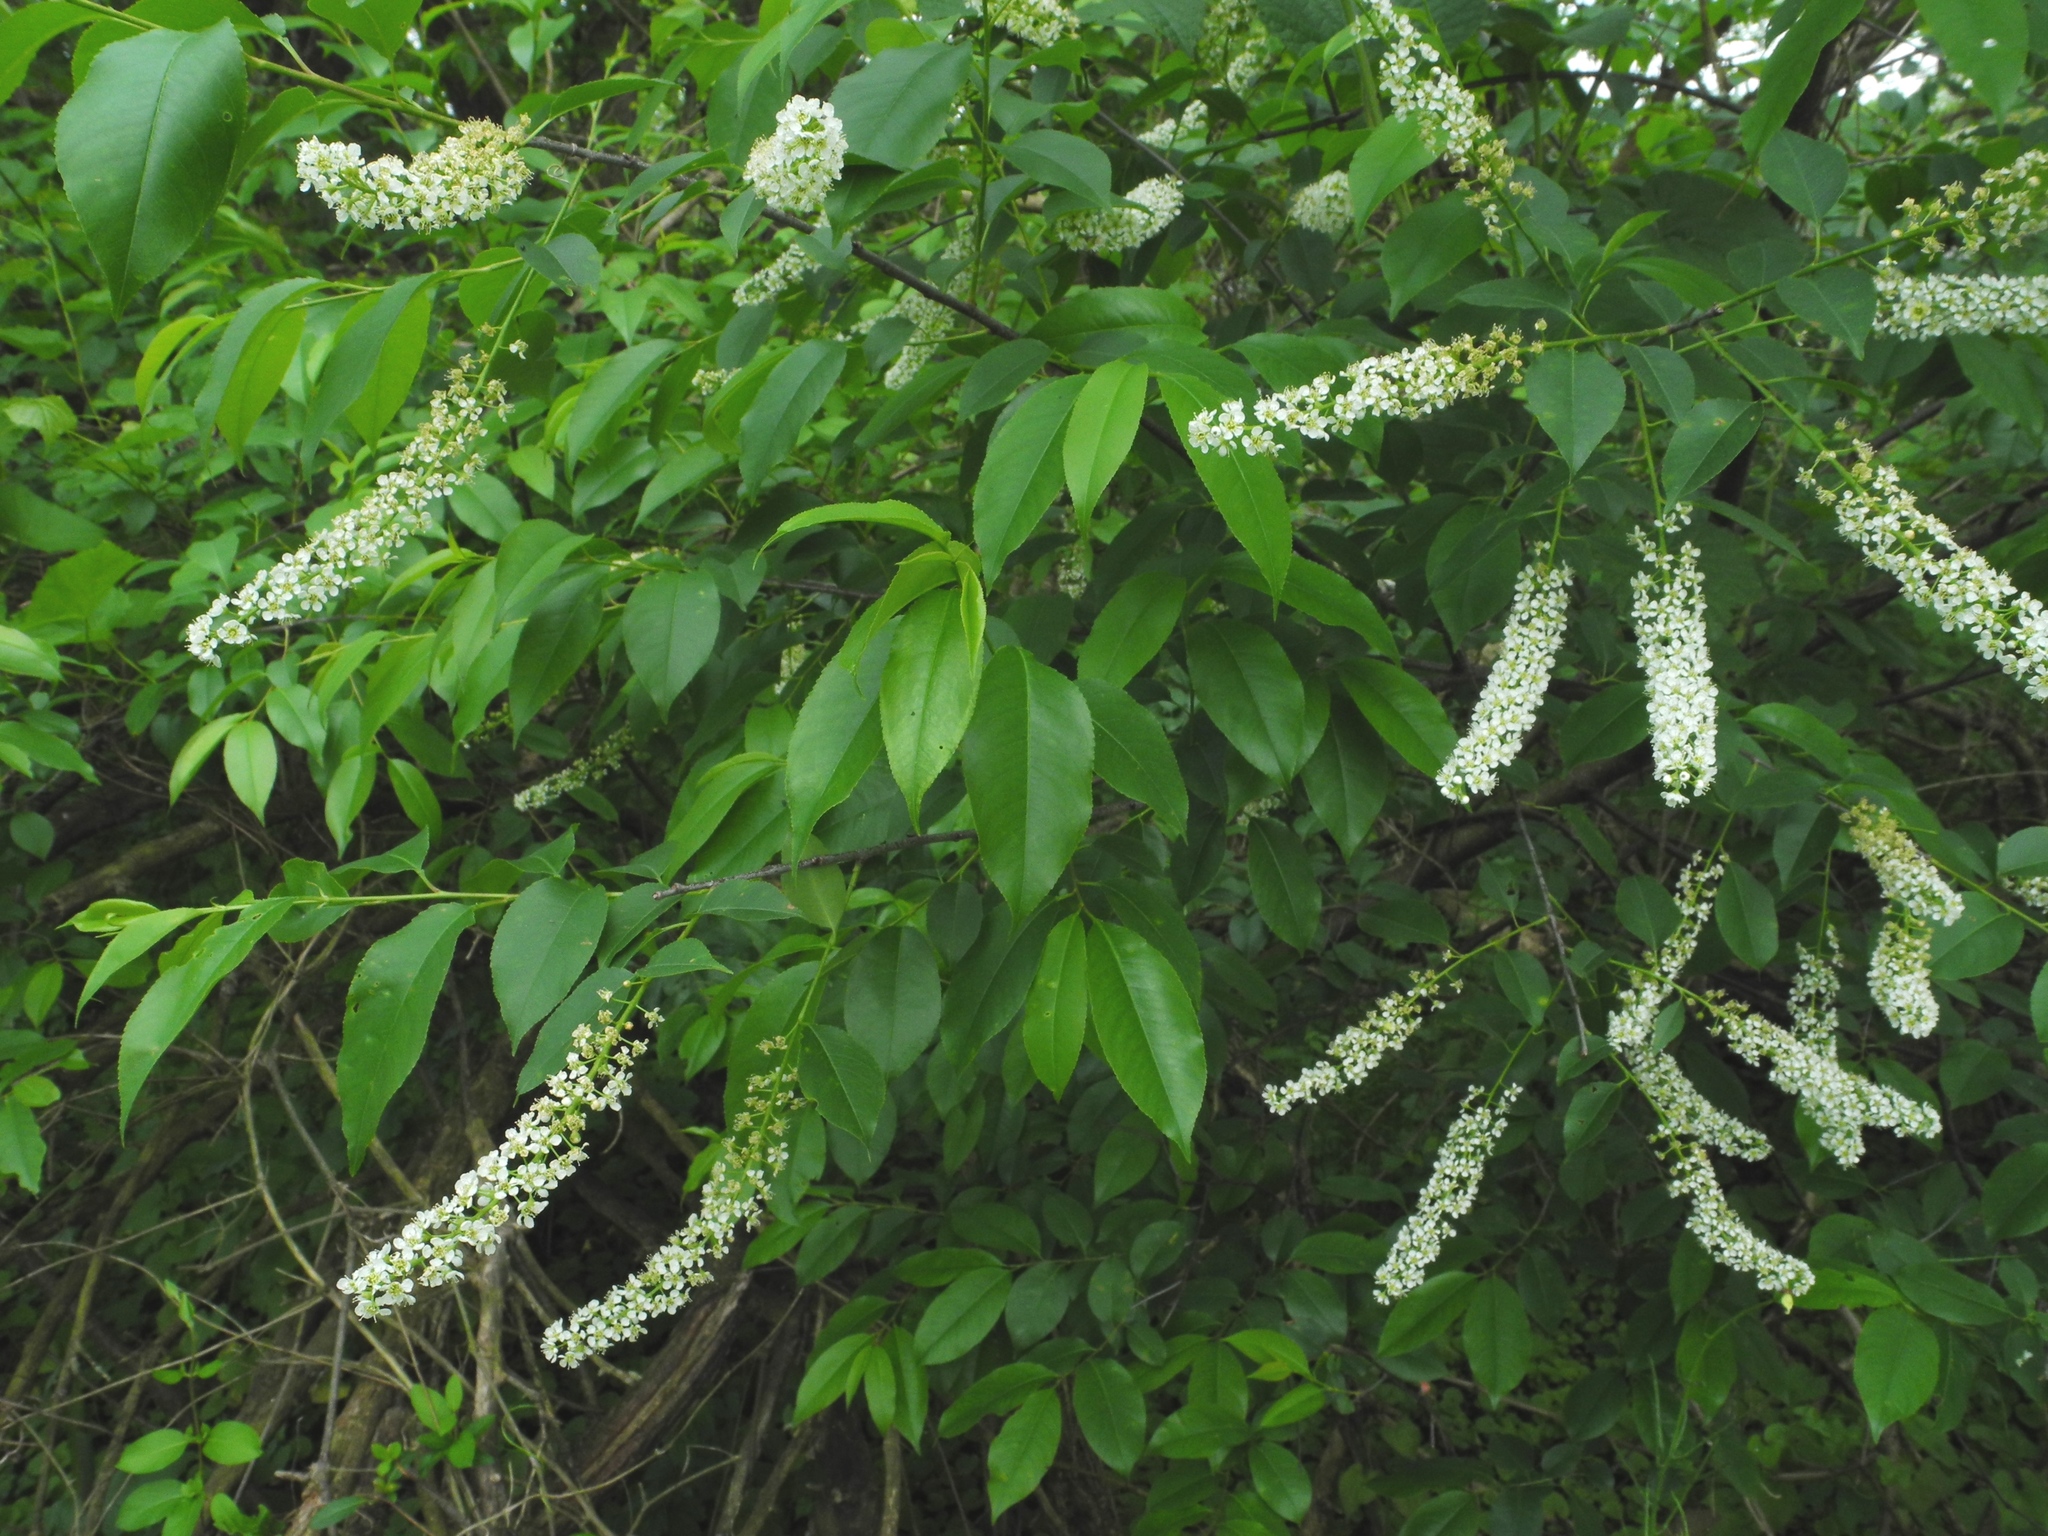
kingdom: Plantae
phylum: Tracheophyta
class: Magnoliopsida
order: Rosales
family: Rosaceae
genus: Prunus
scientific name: Prunus serotina
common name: Black cherry
